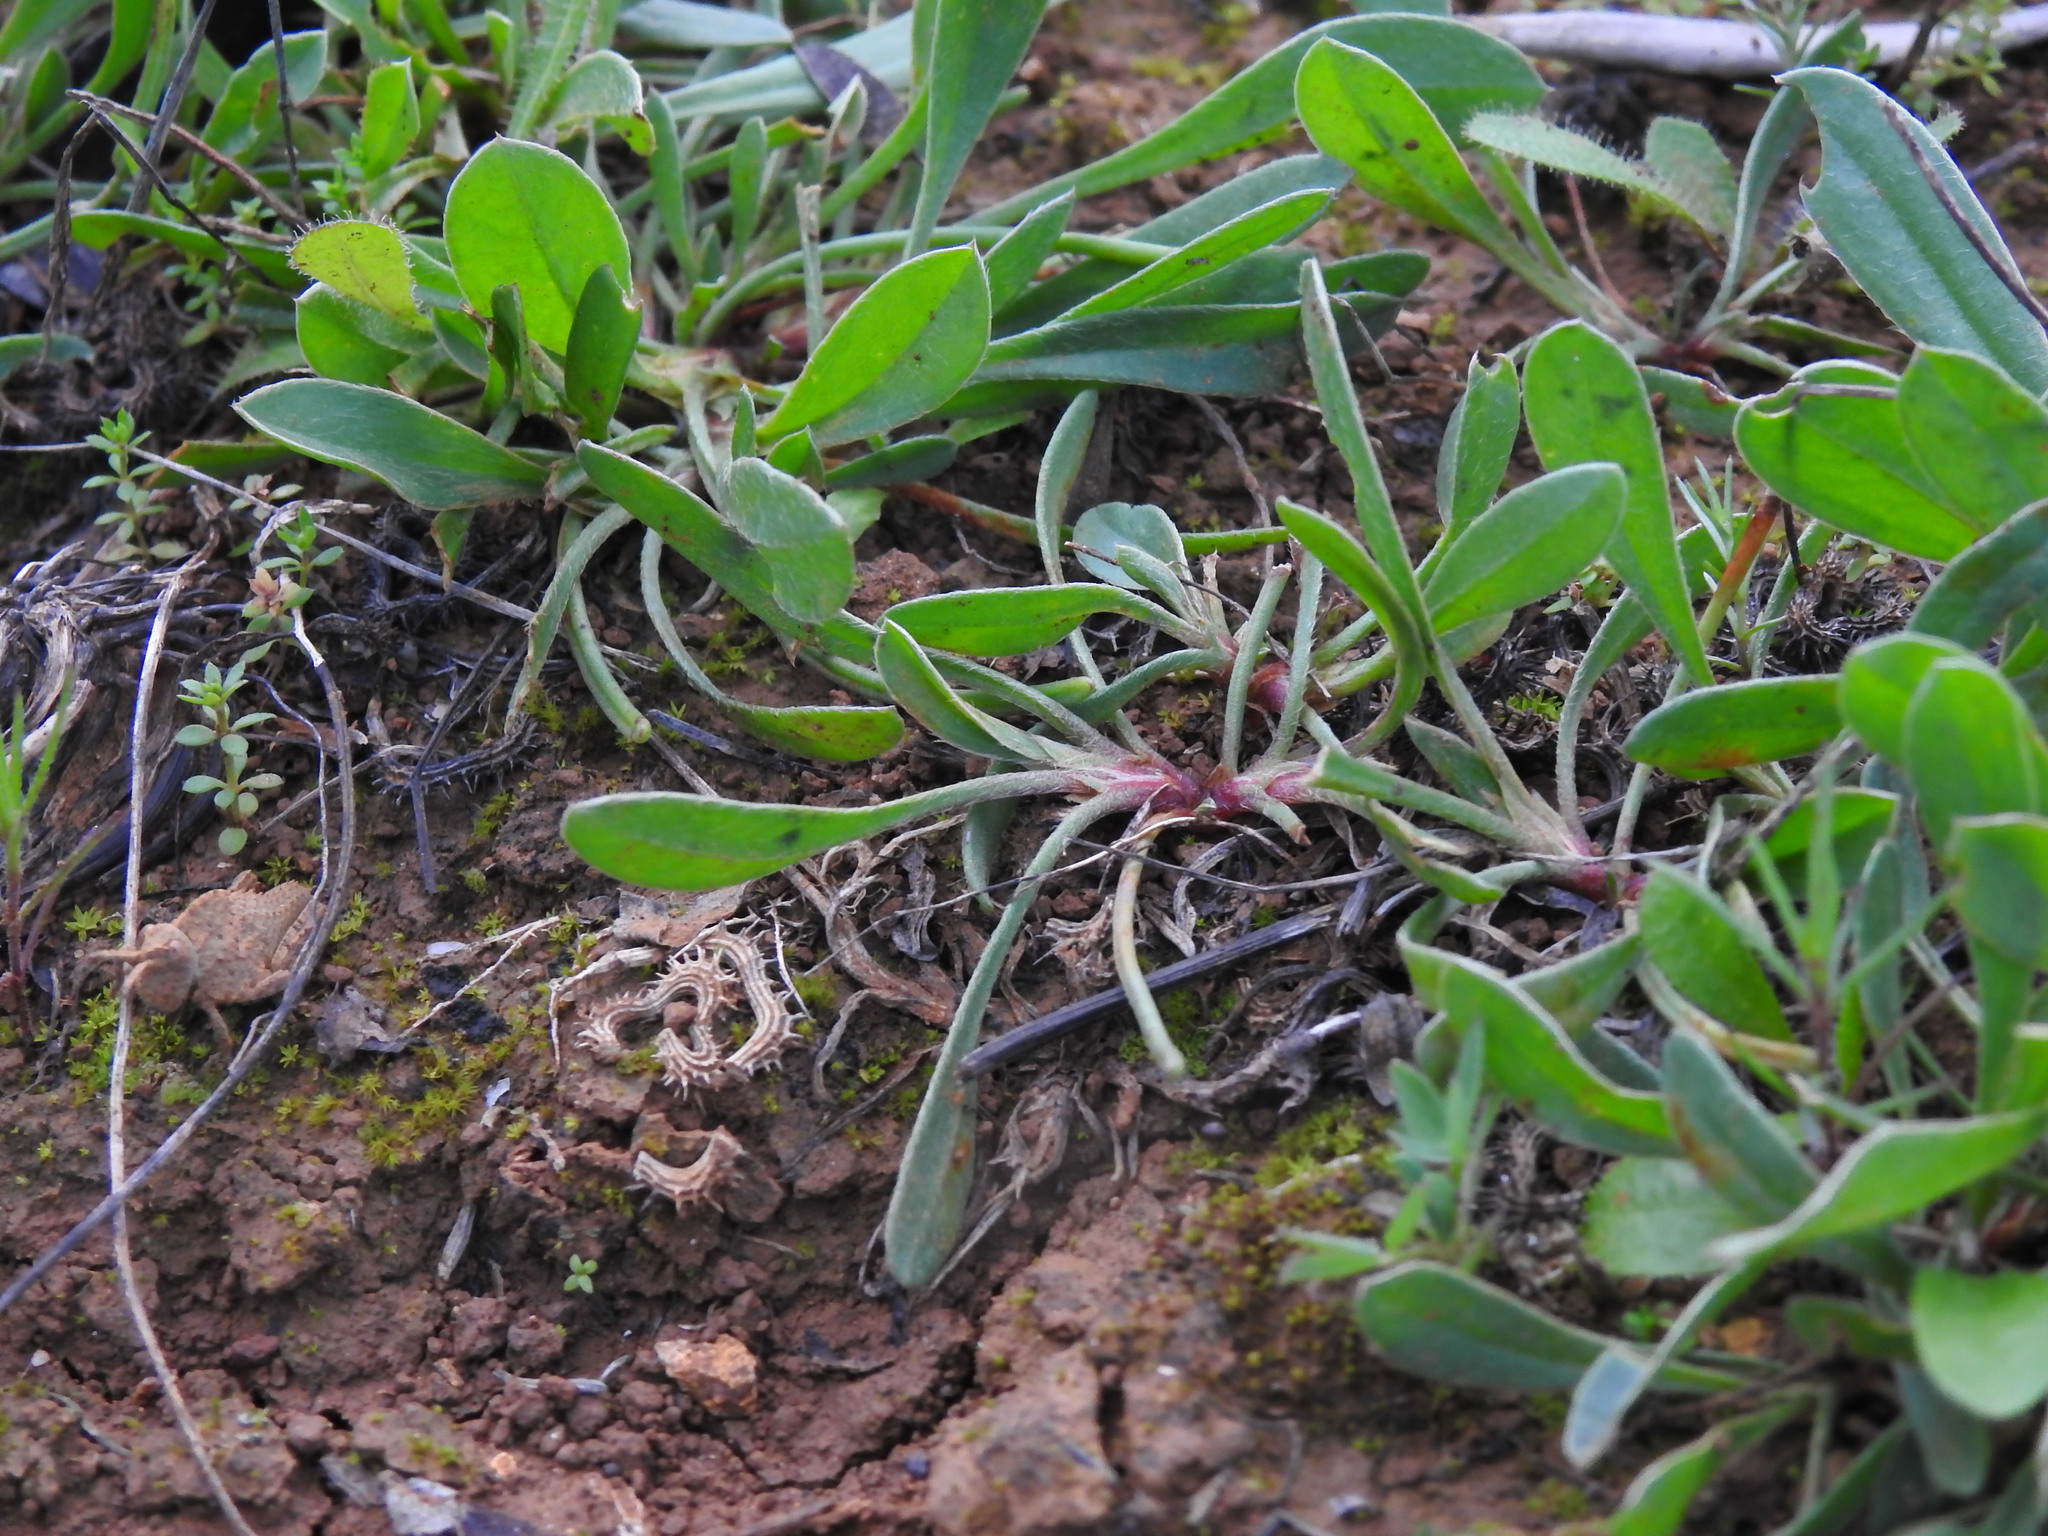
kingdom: Plantae
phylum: Tracheophyta
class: Magnoliopsida
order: Fabales
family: Fabaceae
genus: Scorpiurus
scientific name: Scorpiurus muricatus
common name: Caterpillar-plant
